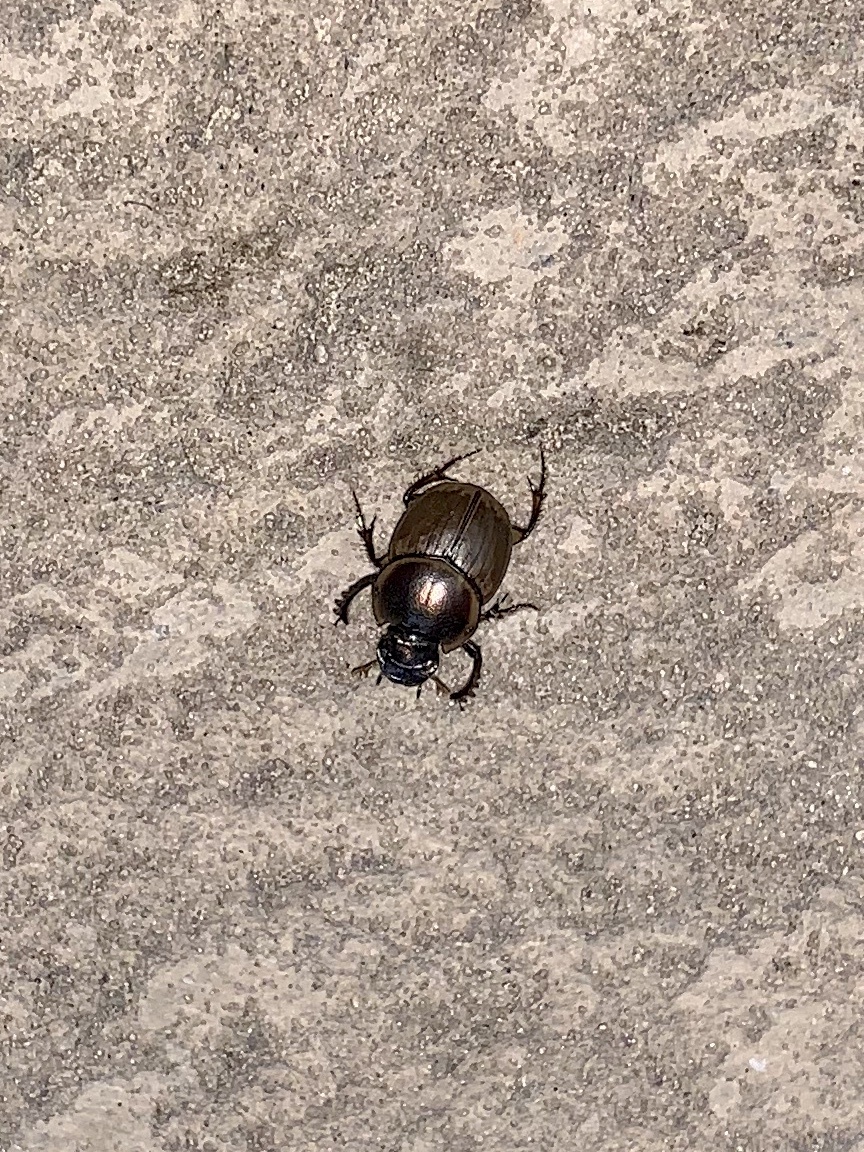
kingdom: Animalia
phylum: Arthropoda
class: Insecta
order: Coleoptera
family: Scarabaeidae
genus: Digitonthophagus
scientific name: Digitonthophagus gazella
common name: Brown dung beetle
